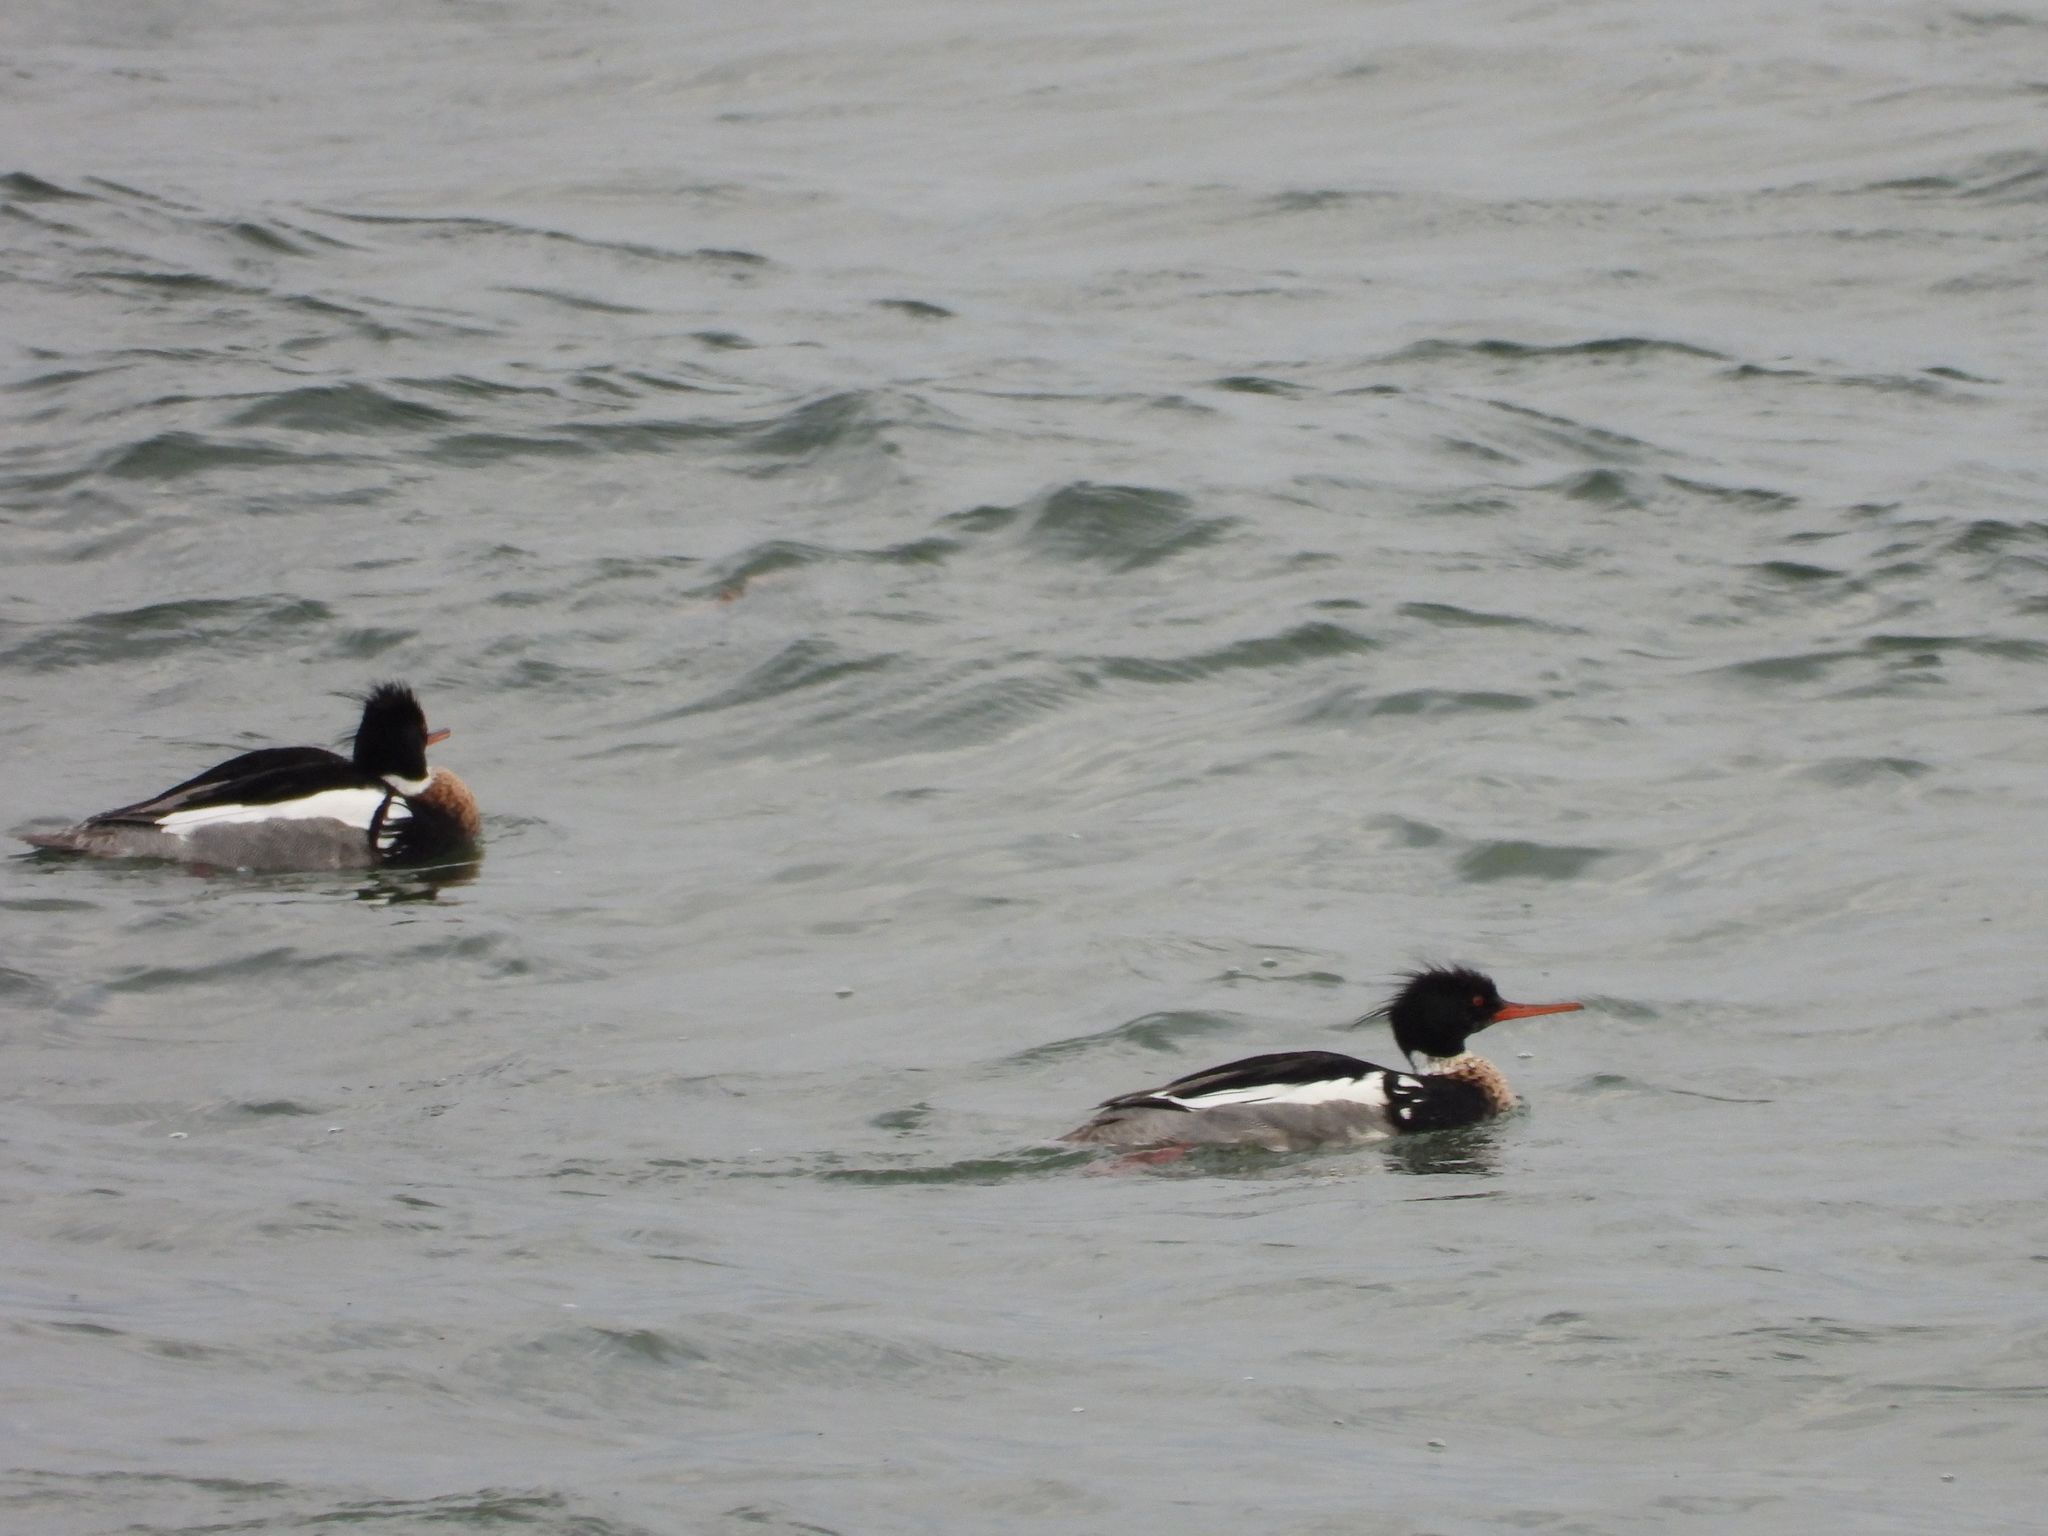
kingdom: Animalia
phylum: Chordata
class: Aves
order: Anseriformes
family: Anatidae
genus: Mergus
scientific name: Mergus serrator
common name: Red-breasted merganser
